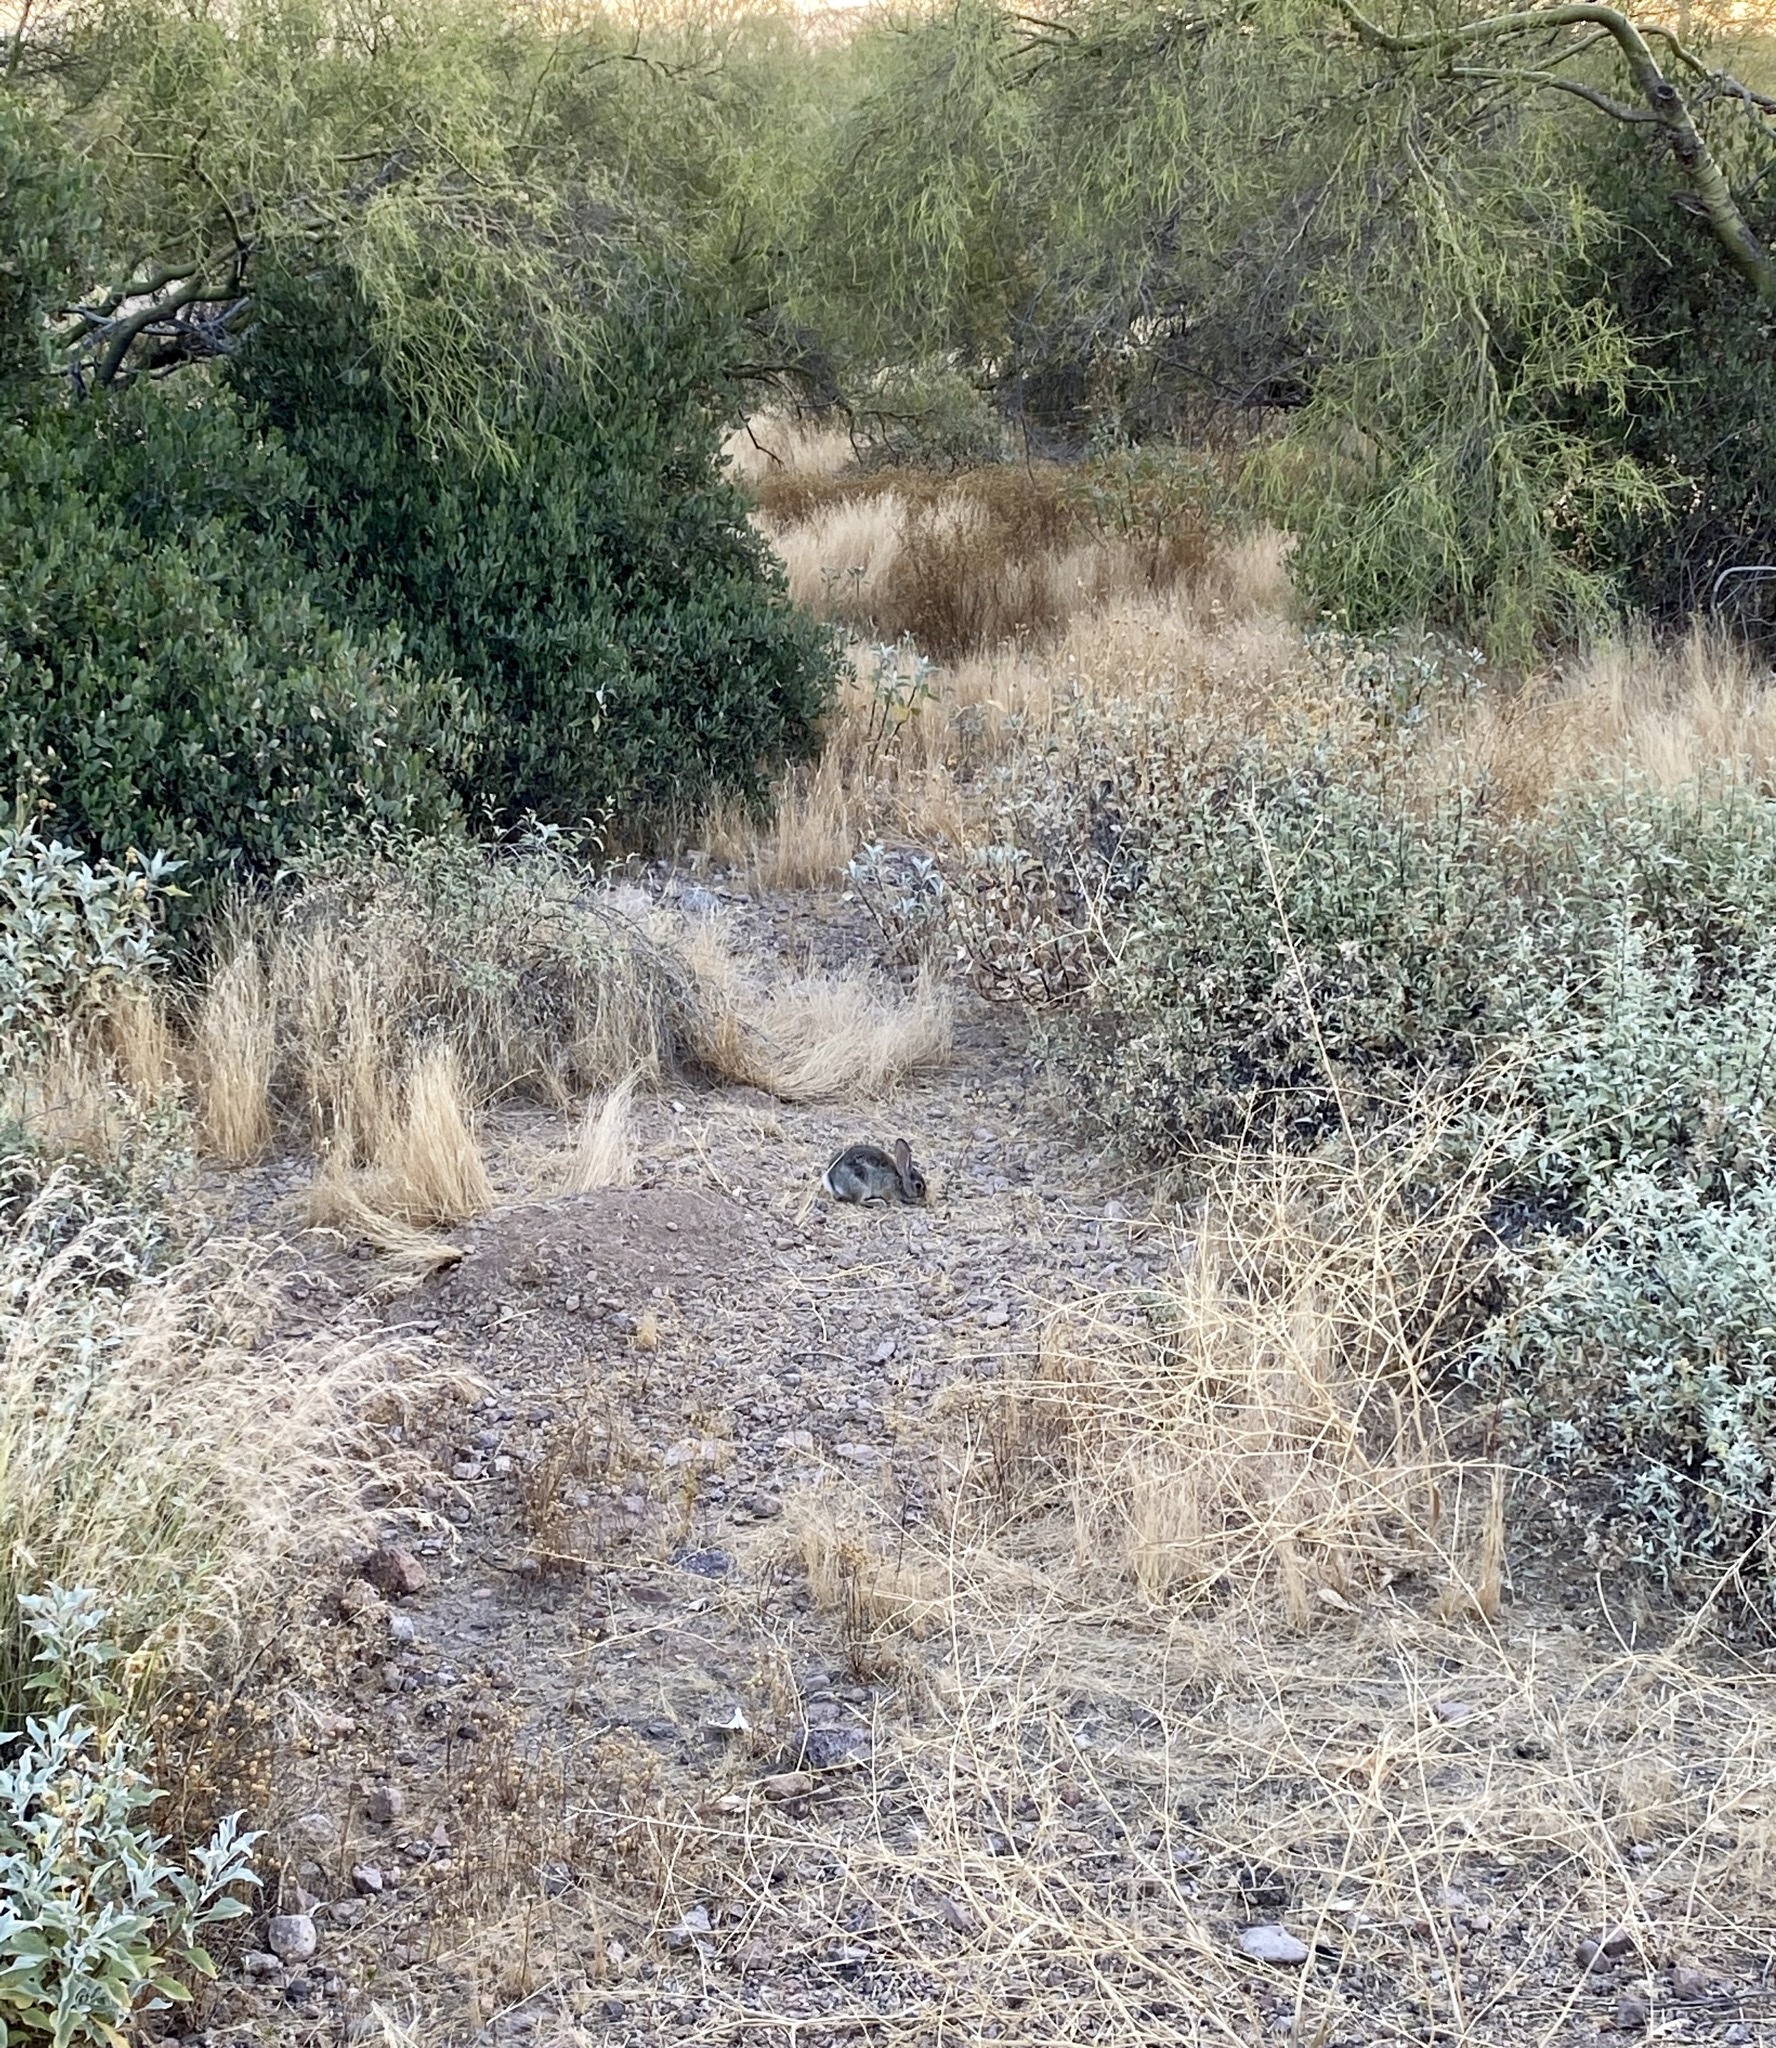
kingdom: Animalia
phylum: Chordata
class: Mammalia
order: Lagomorpha
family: Leporidae
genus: Sylvilagus
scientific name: Sylvilagus audubonii
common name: Desert cottontail
